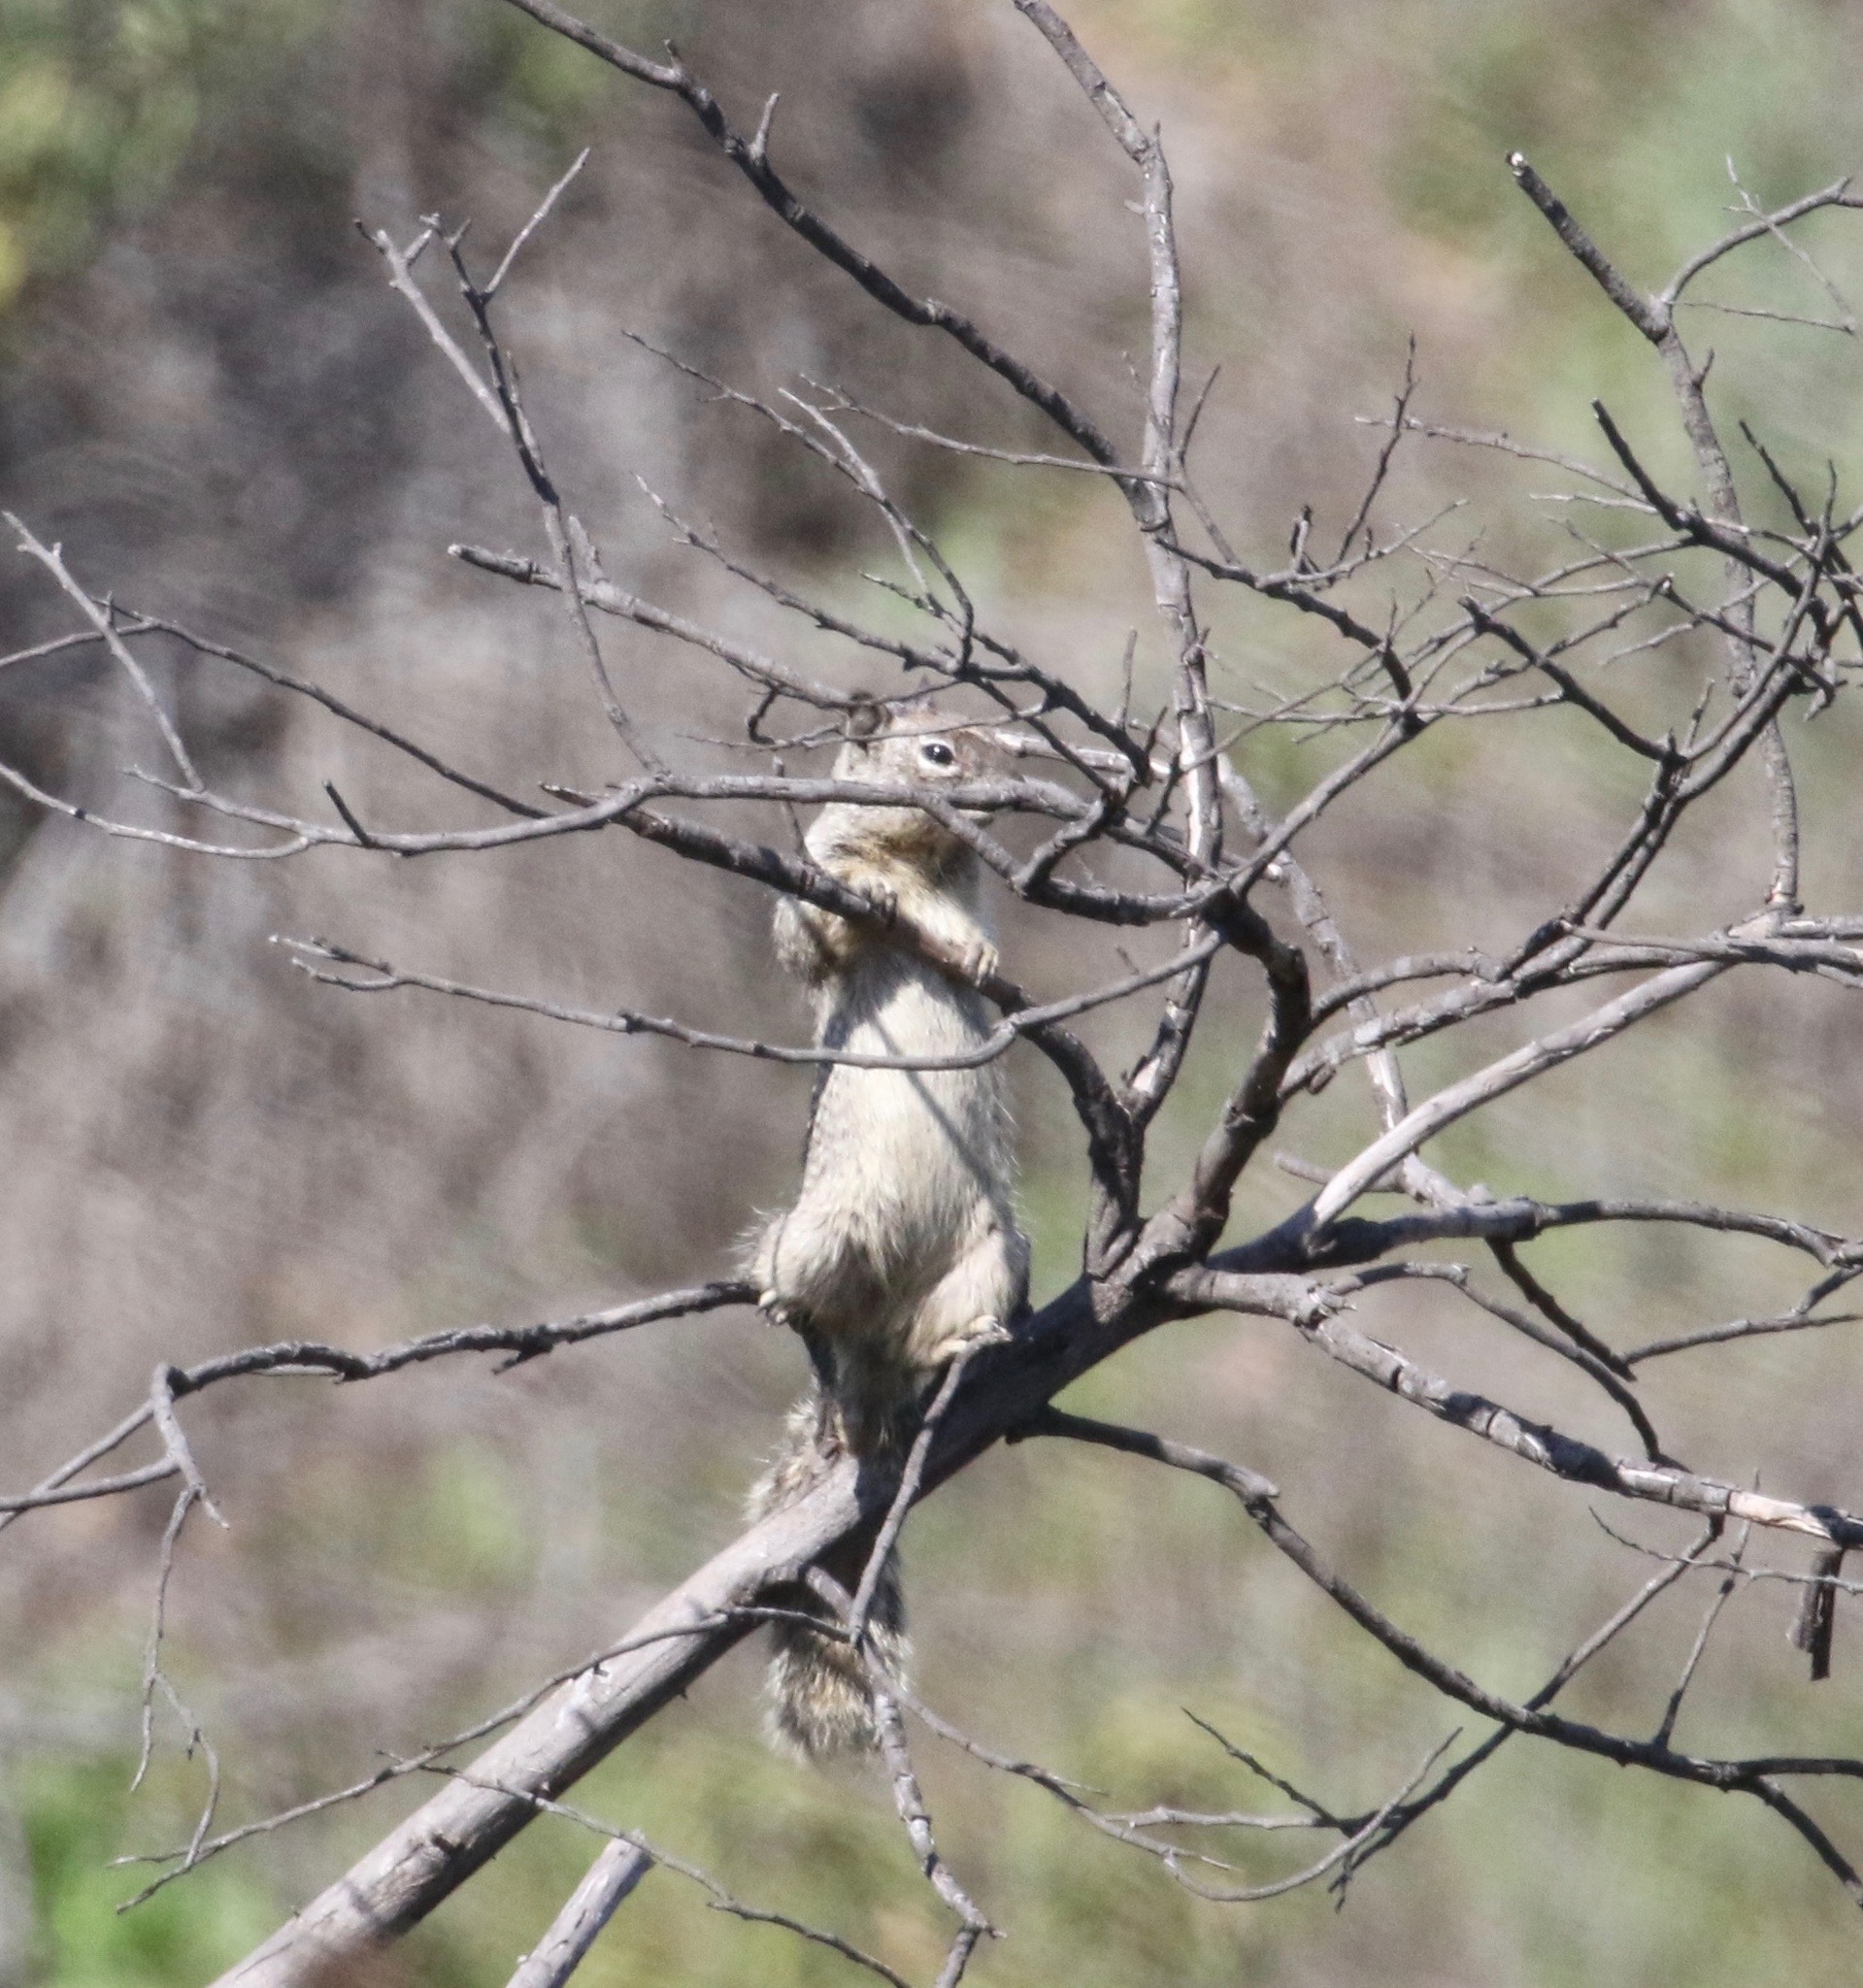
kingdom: Animalia
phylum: Chordata
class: Mammalia
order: Rodentia
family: Sciuridae
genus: Otospermophilus
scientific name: Otospermophilus beecheyi
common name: California ground squirrel
